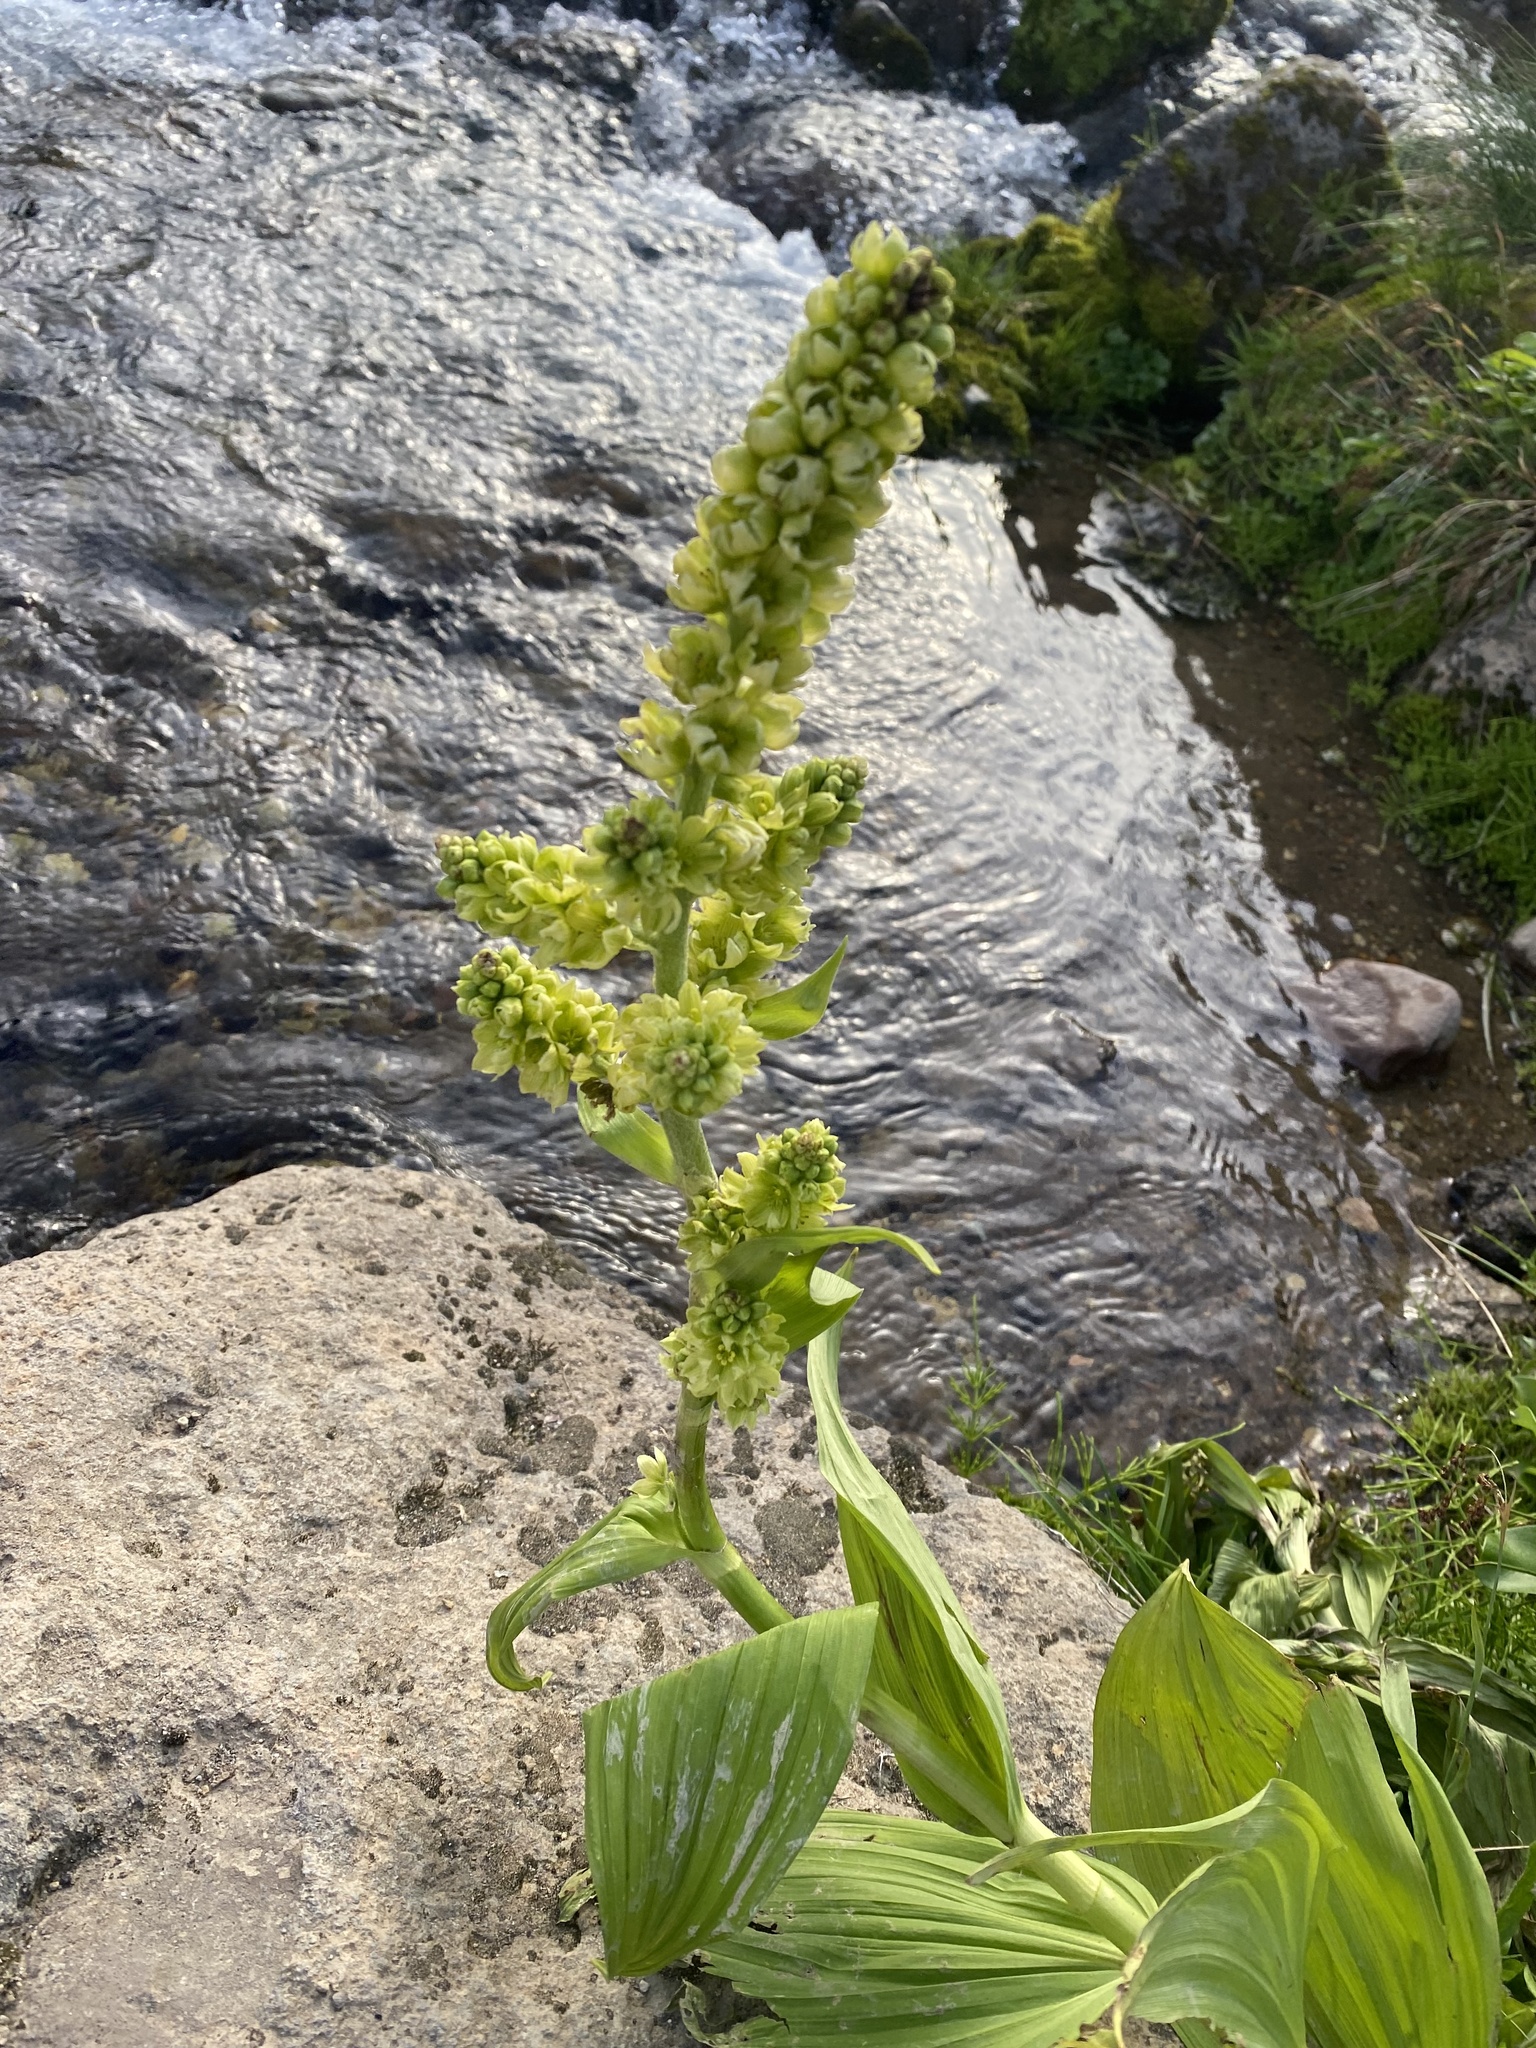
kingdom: Plantae
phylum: Tracheophyta
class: Liliopsida
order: Liliales
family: Melanthiaceae
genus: Veratrum
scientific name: Veratrum oxysepalum
